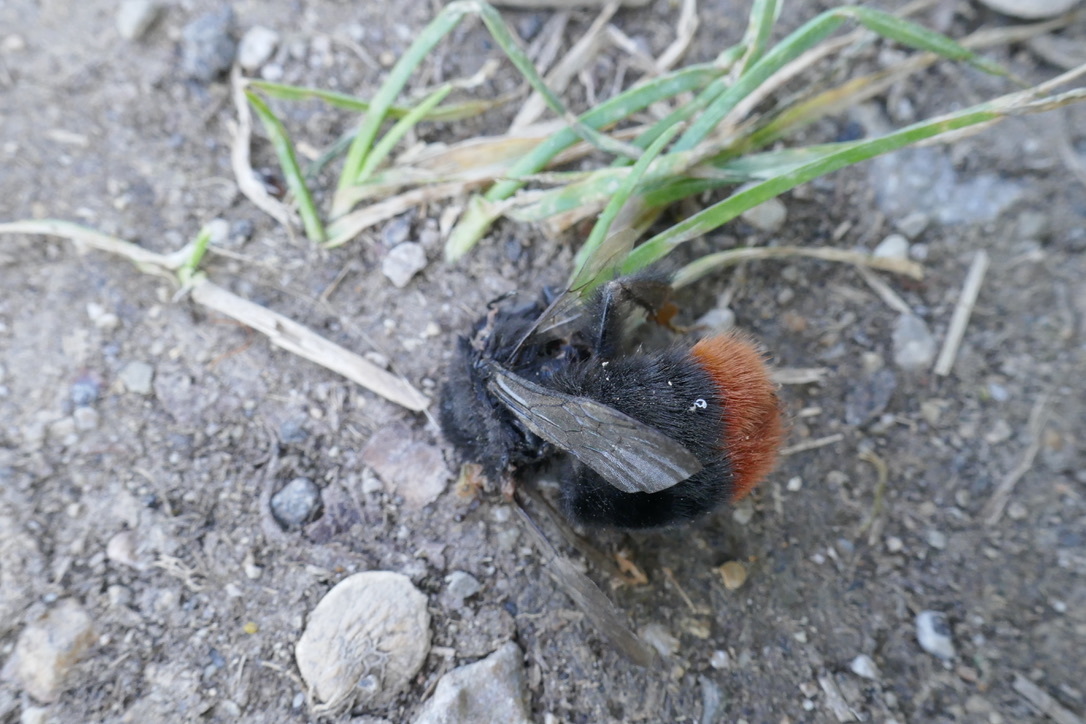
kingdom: Animalia
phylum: Arthropoda
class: Insecta
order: Hymenoptera
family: Apidae
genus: Bombus
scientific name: Bombus lapidarius
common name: Large red-tailed humble-bee
